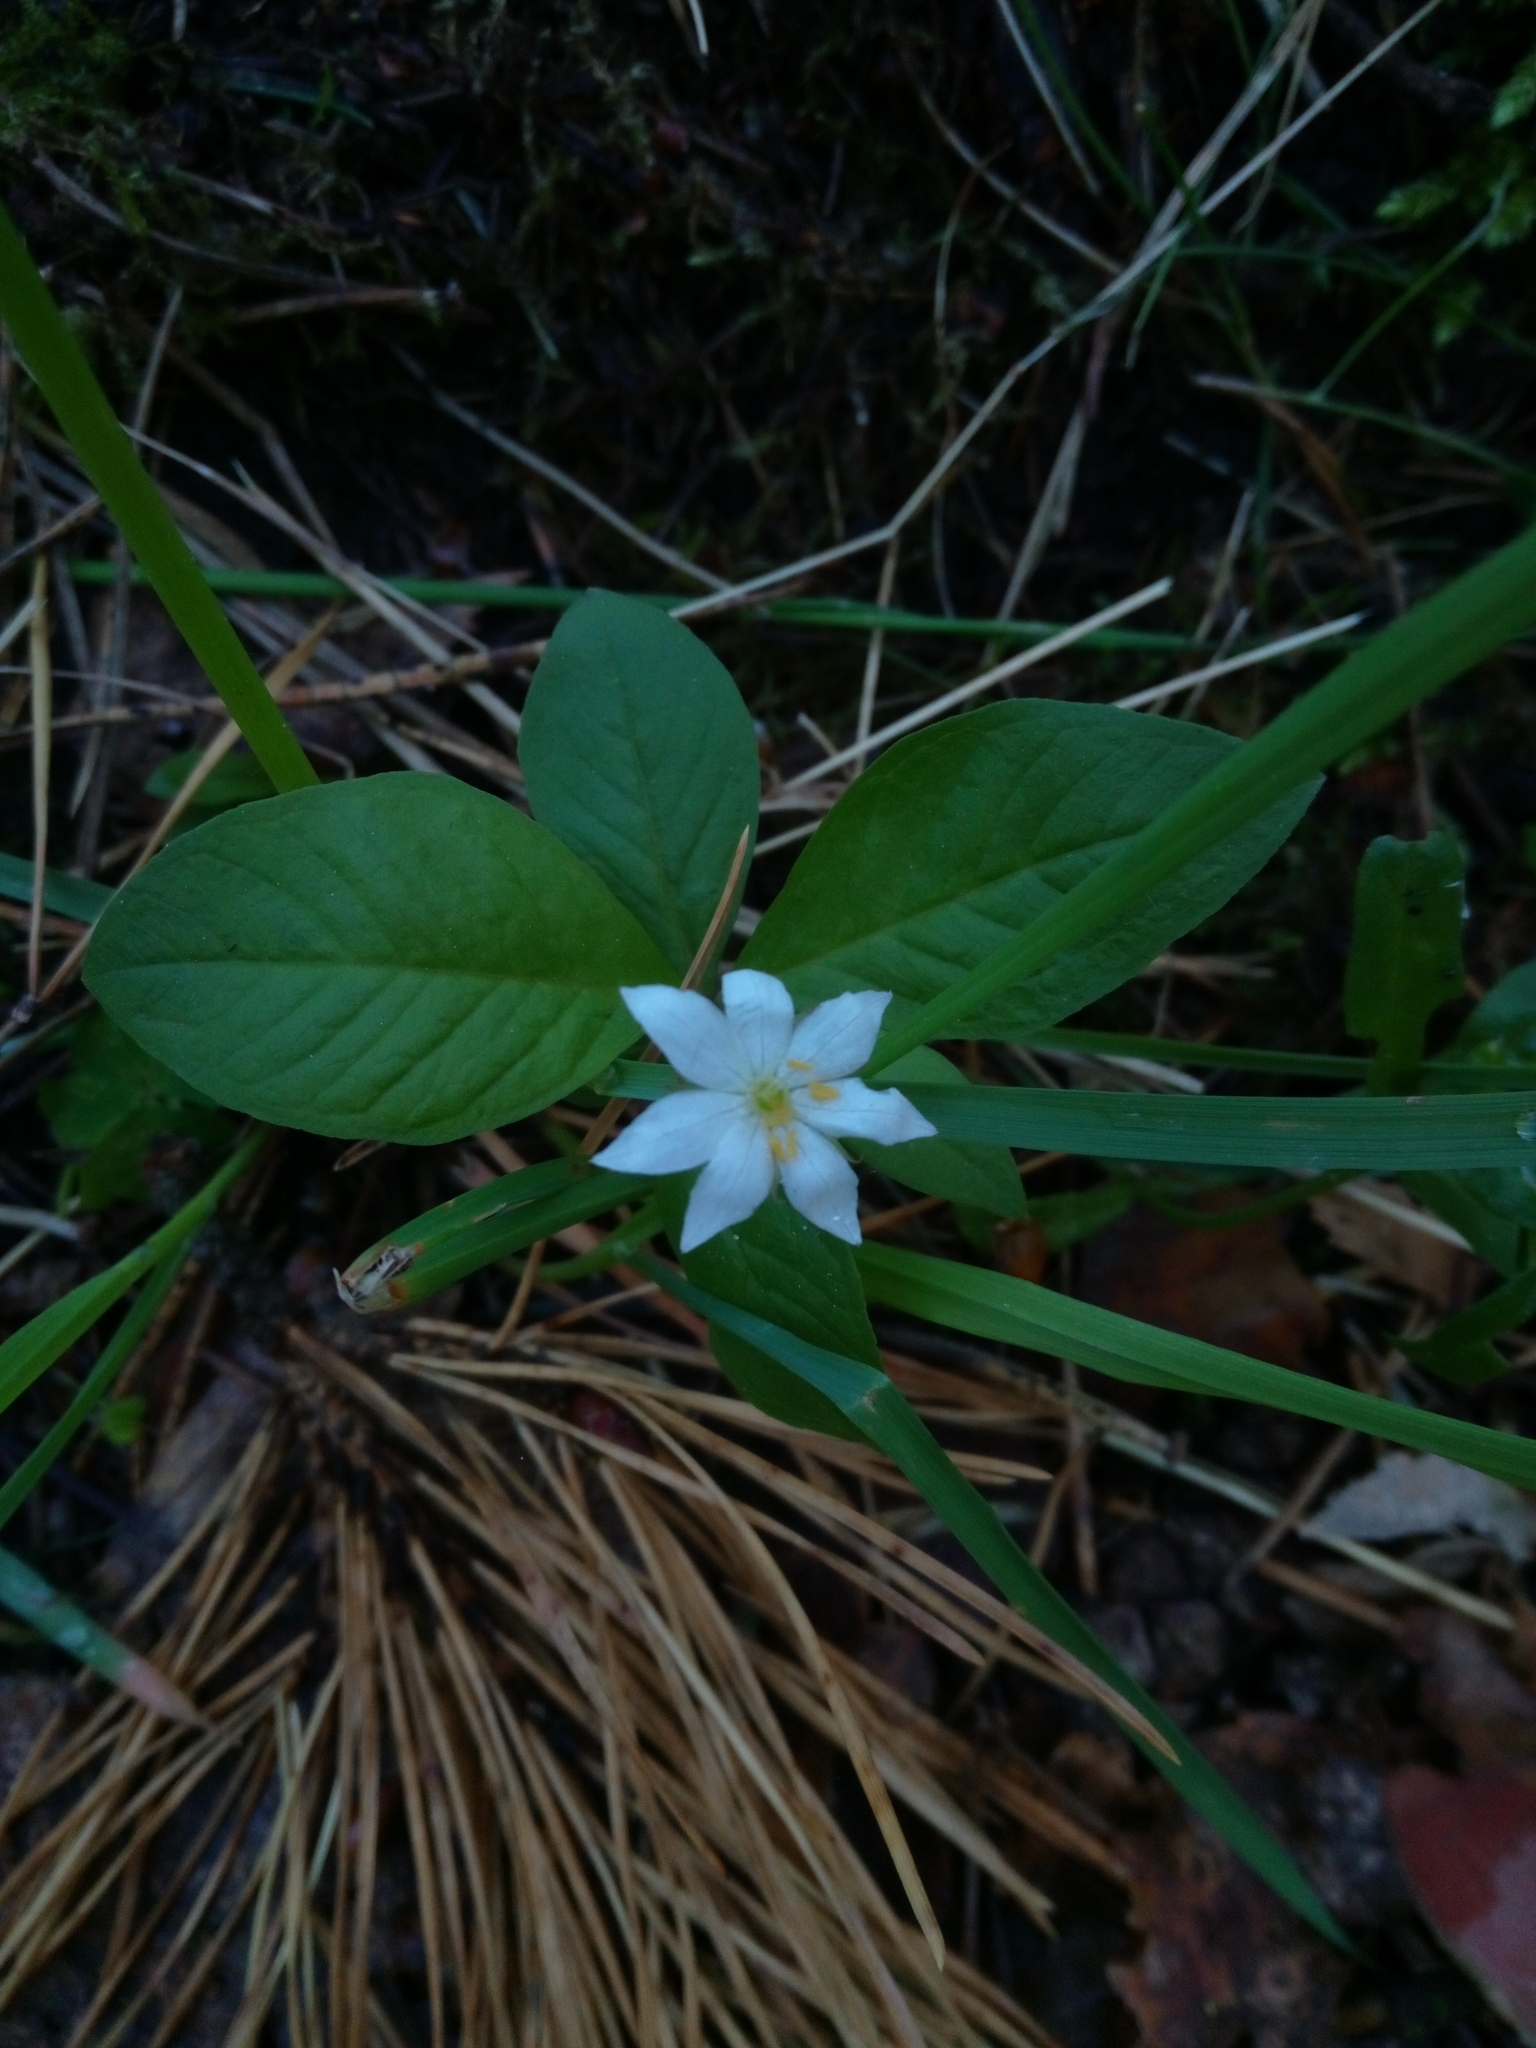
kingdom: Plantae
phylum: Tracheophyta
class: Magnoliopsida
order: Ericales
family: Primulaceae
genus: Lysimachia
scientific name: Lysimachia europaea
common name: Arctic starflower
